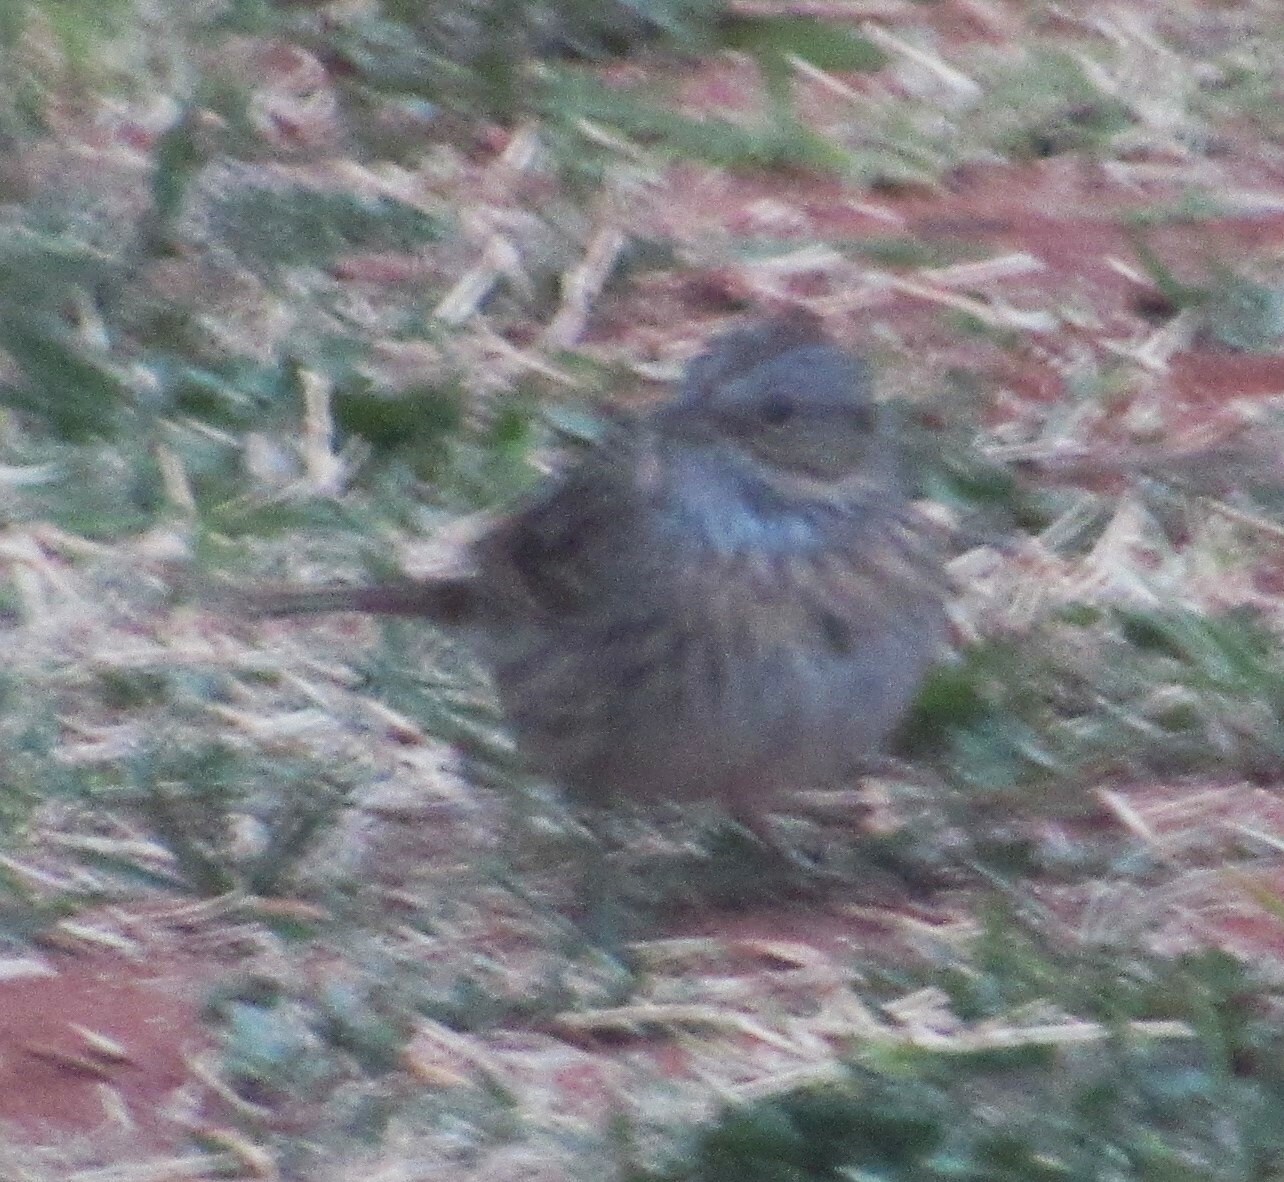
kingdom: Animalia
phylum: Chordata
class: Aves
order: Passeriformes
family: Passerellidae
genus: Melospiza
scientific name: Melospiza lincolnii
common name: Lincoln's sparrow
